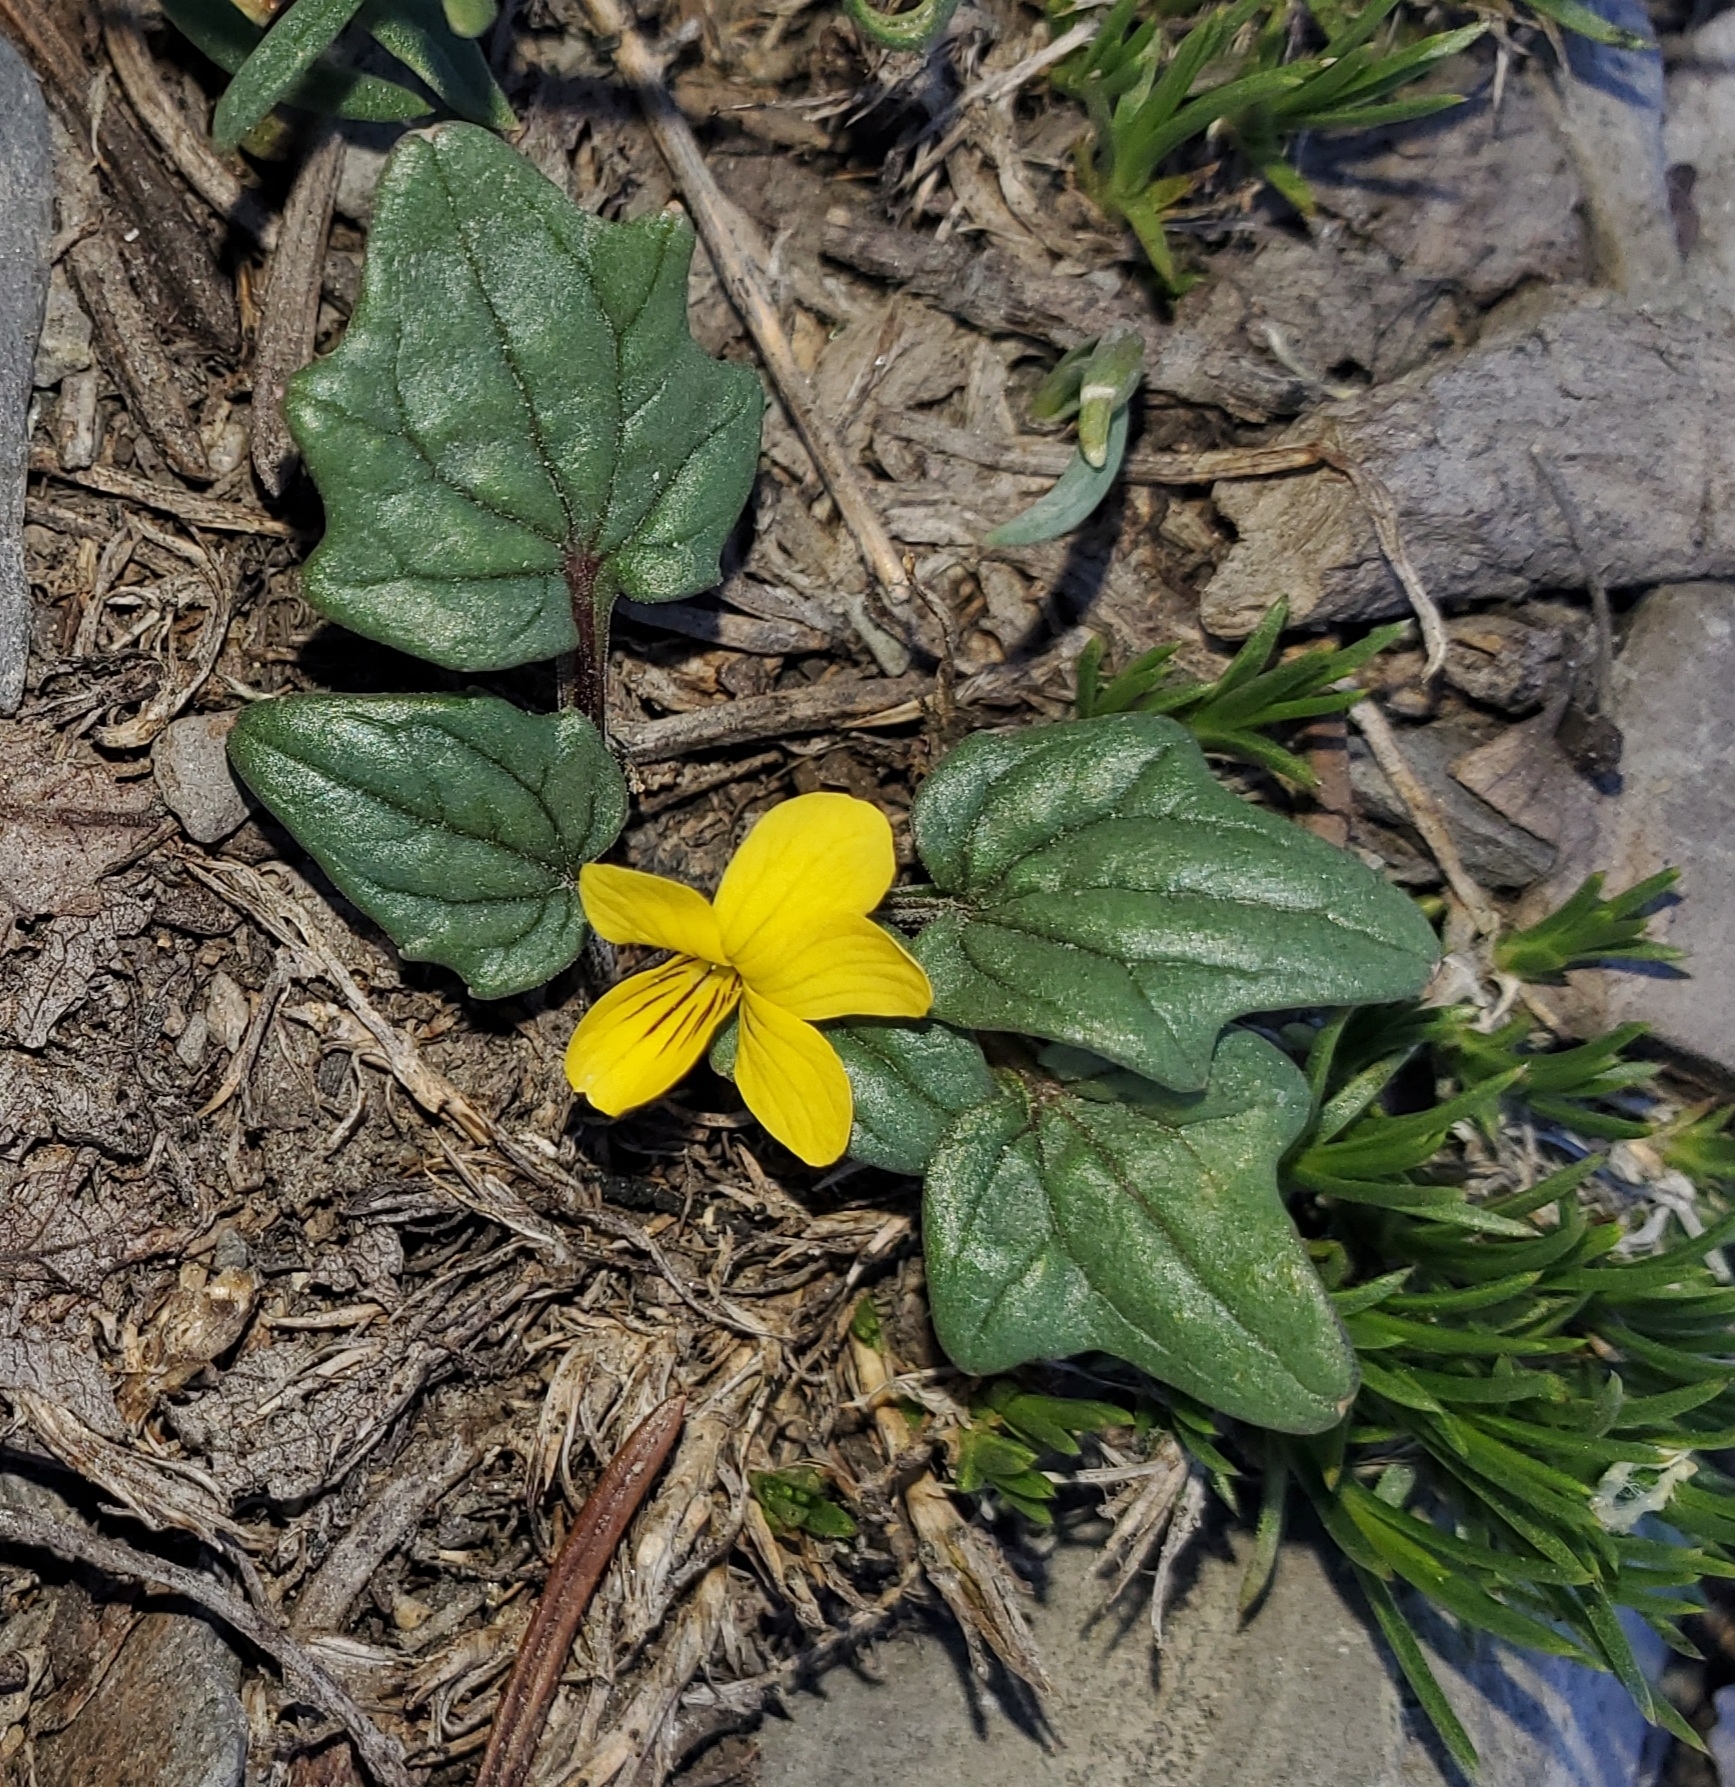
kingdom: Plantae
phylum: Tracheophyta
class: Magnoliopsida
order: Malpighiales
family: Violaceae
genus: Viola
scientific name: Viola purpurea
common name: Pine violet
